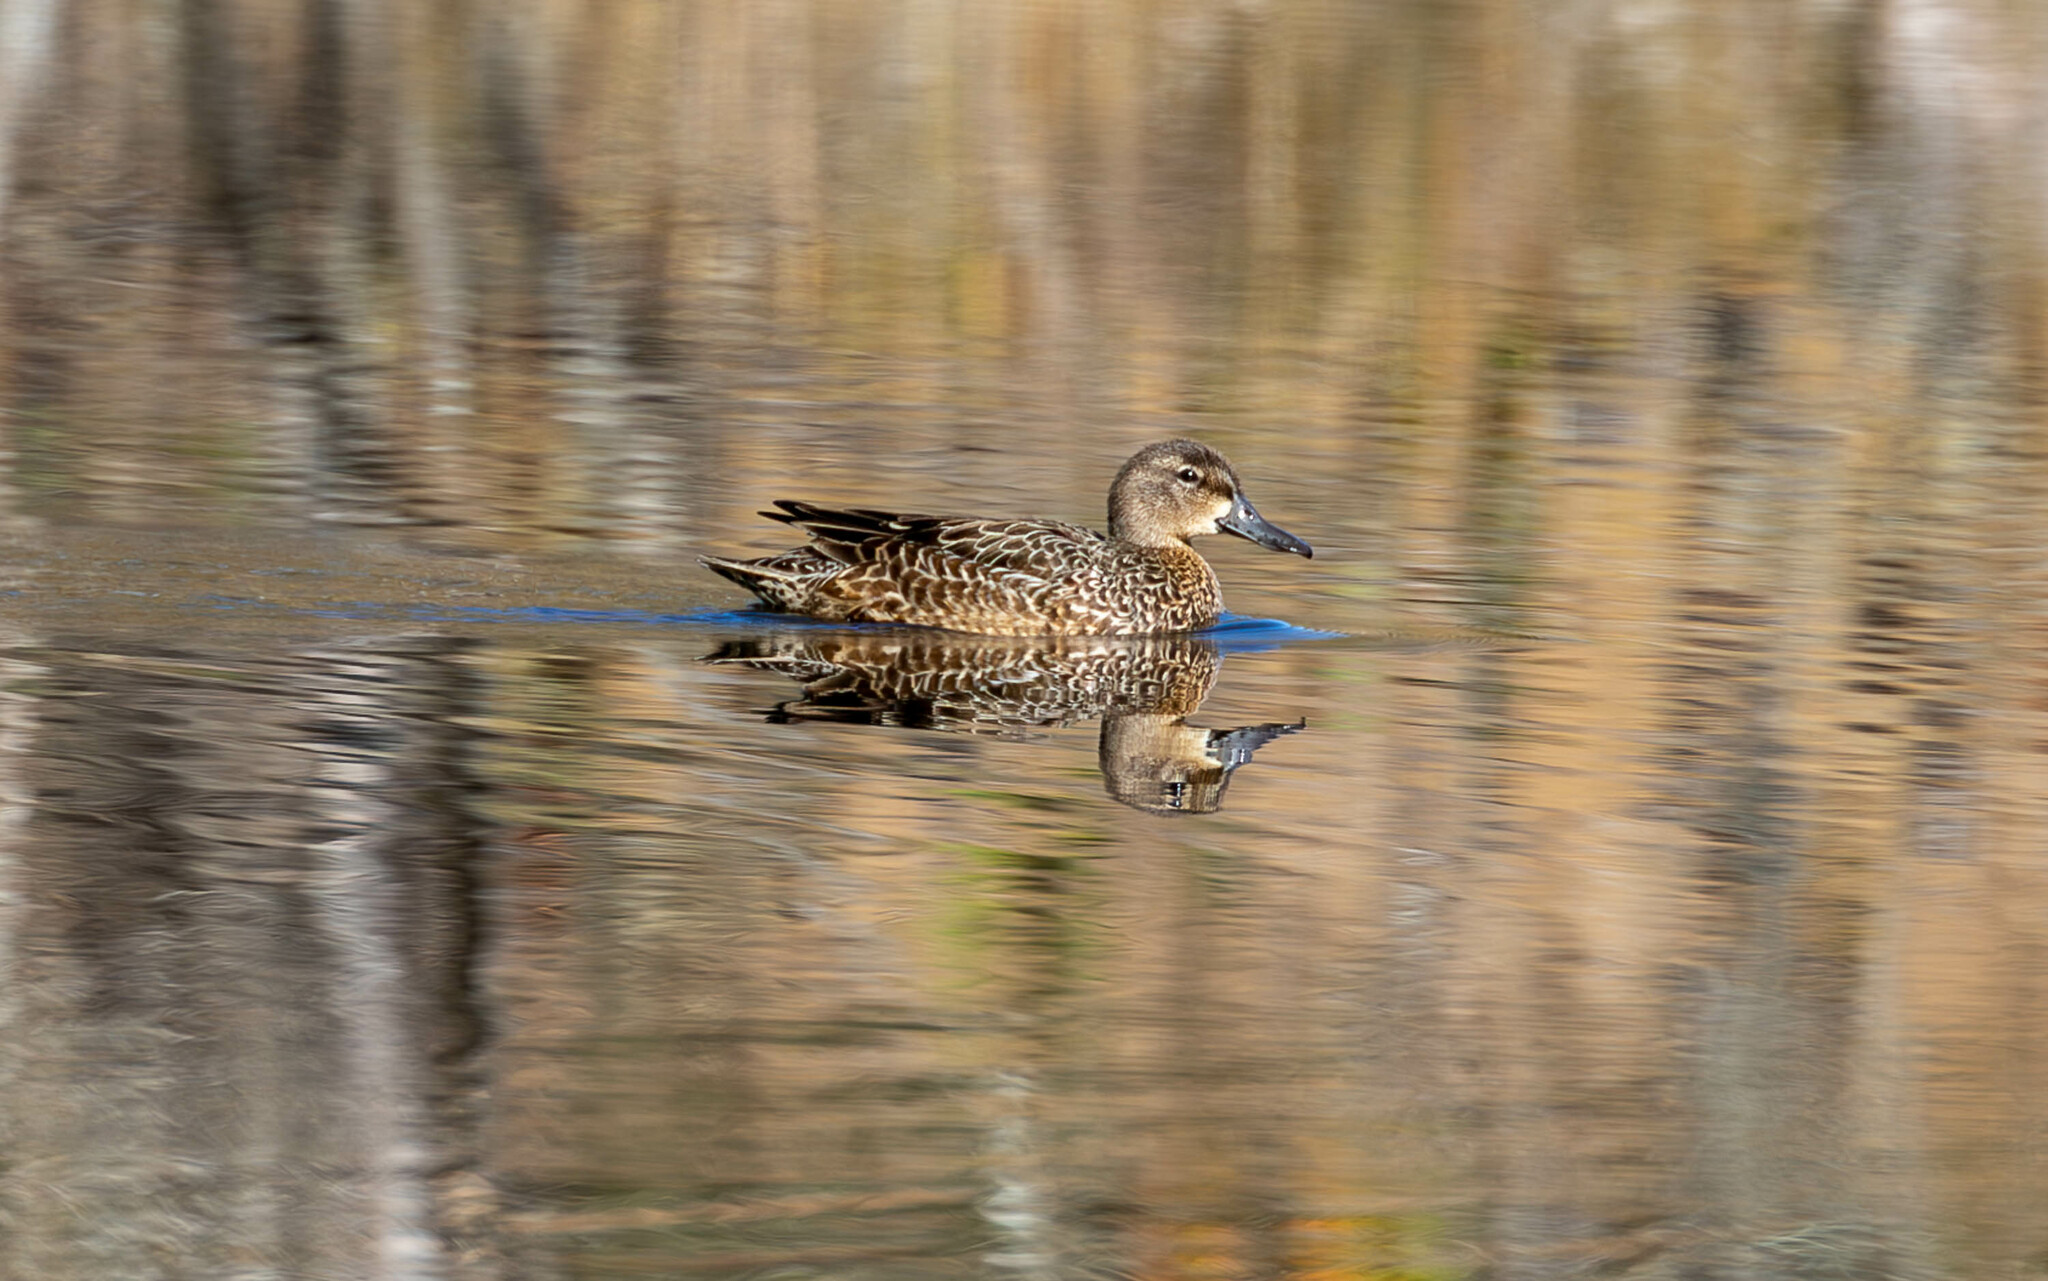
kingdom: Animalia
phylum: Chordata
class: Aves
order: Anseriformes
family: Anatidae
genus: Spatula
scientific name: Spatula discors
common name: Blue-winged teal
